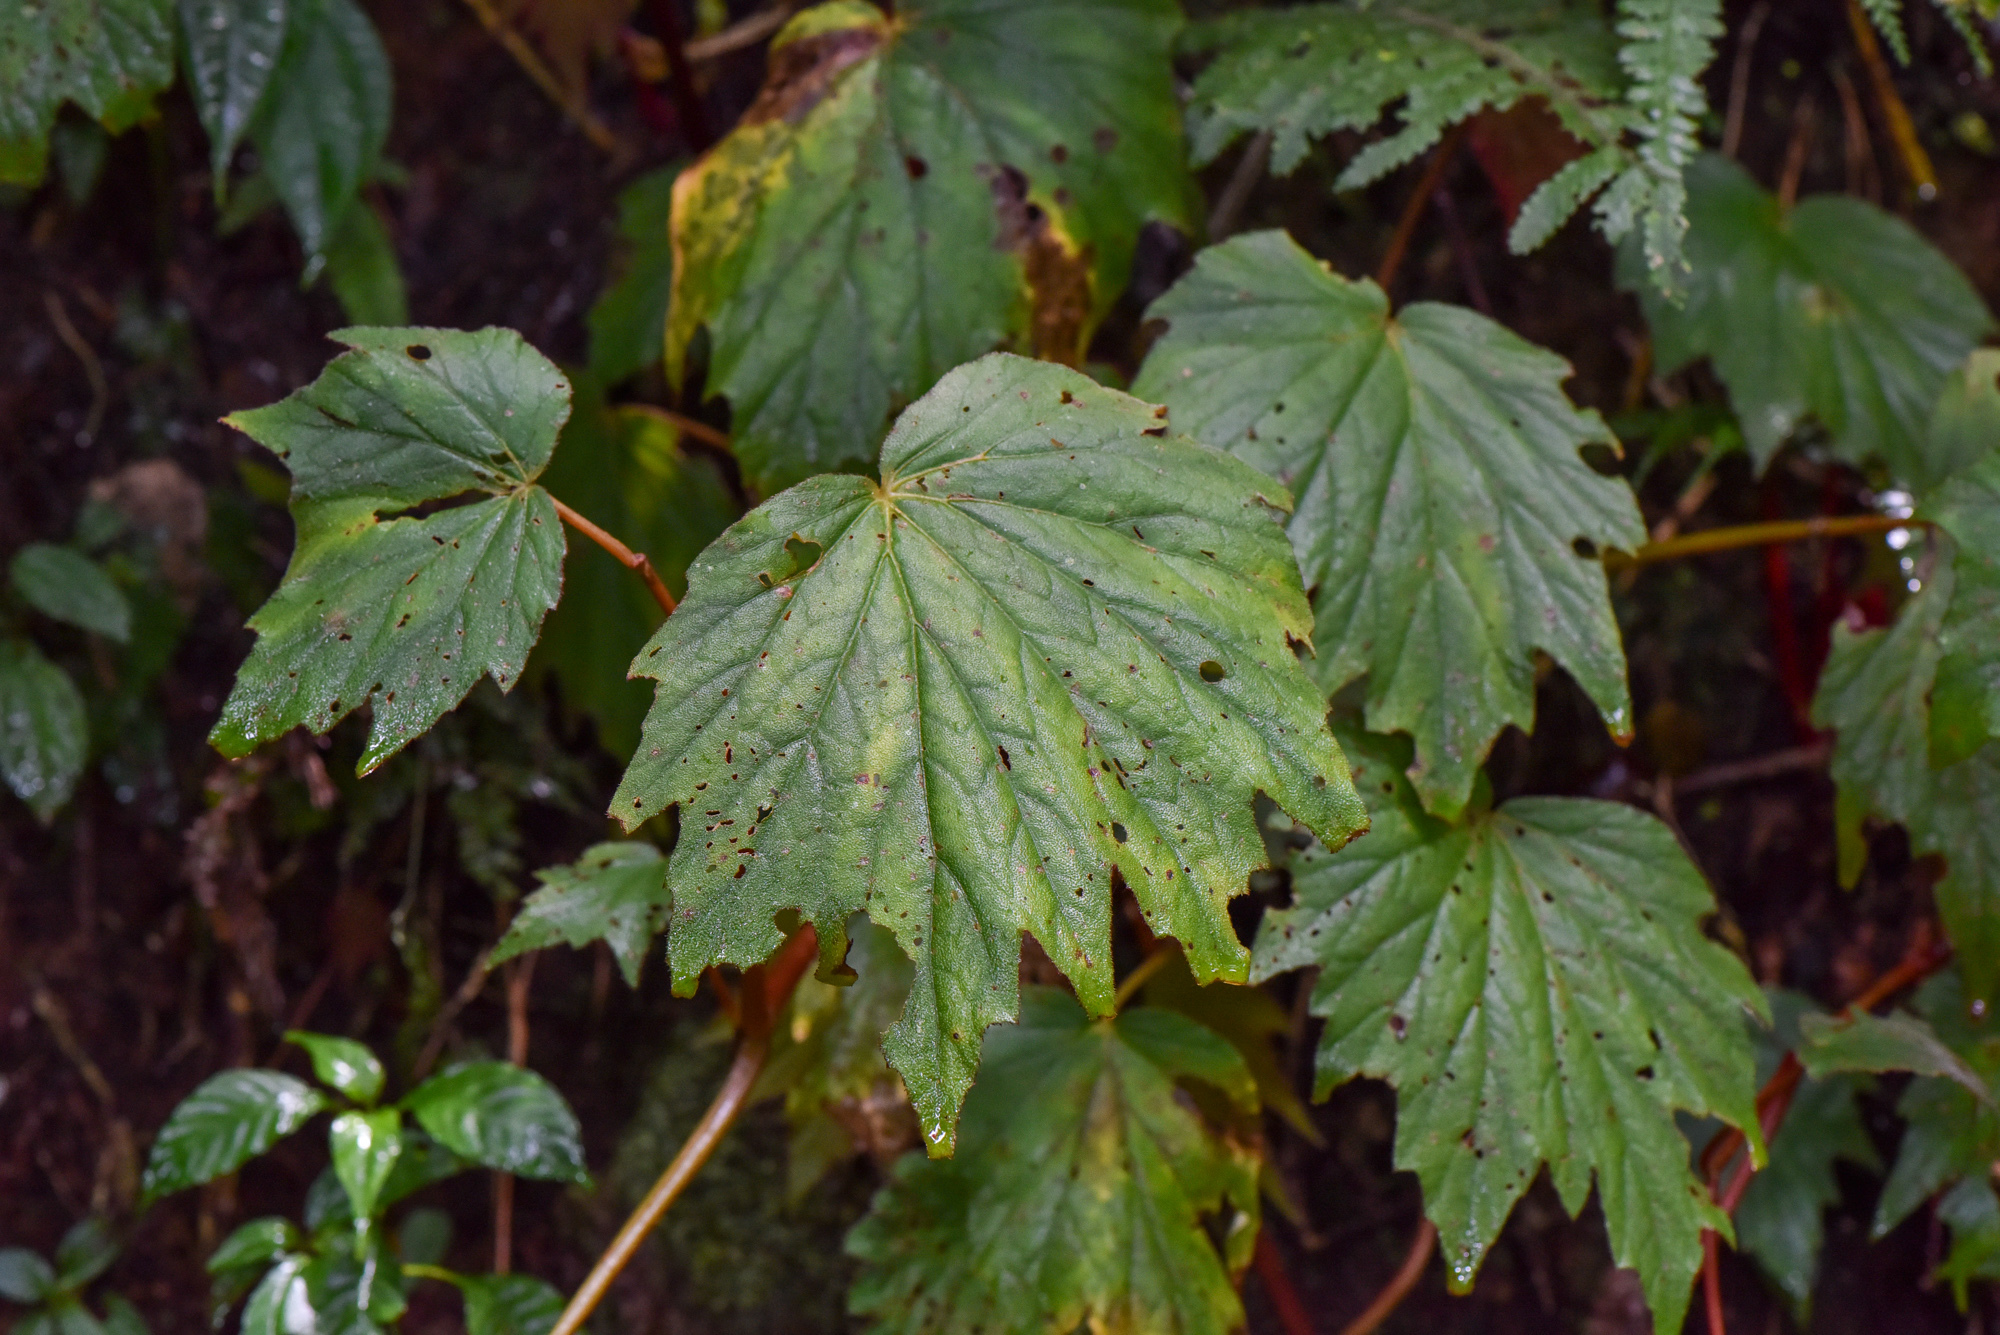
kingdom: Plantae
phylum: Tracheophyta
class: Magnoliopsida
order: Cucurbitales
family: Begoniaceae
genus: Begonia
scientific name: Begonia palmata
